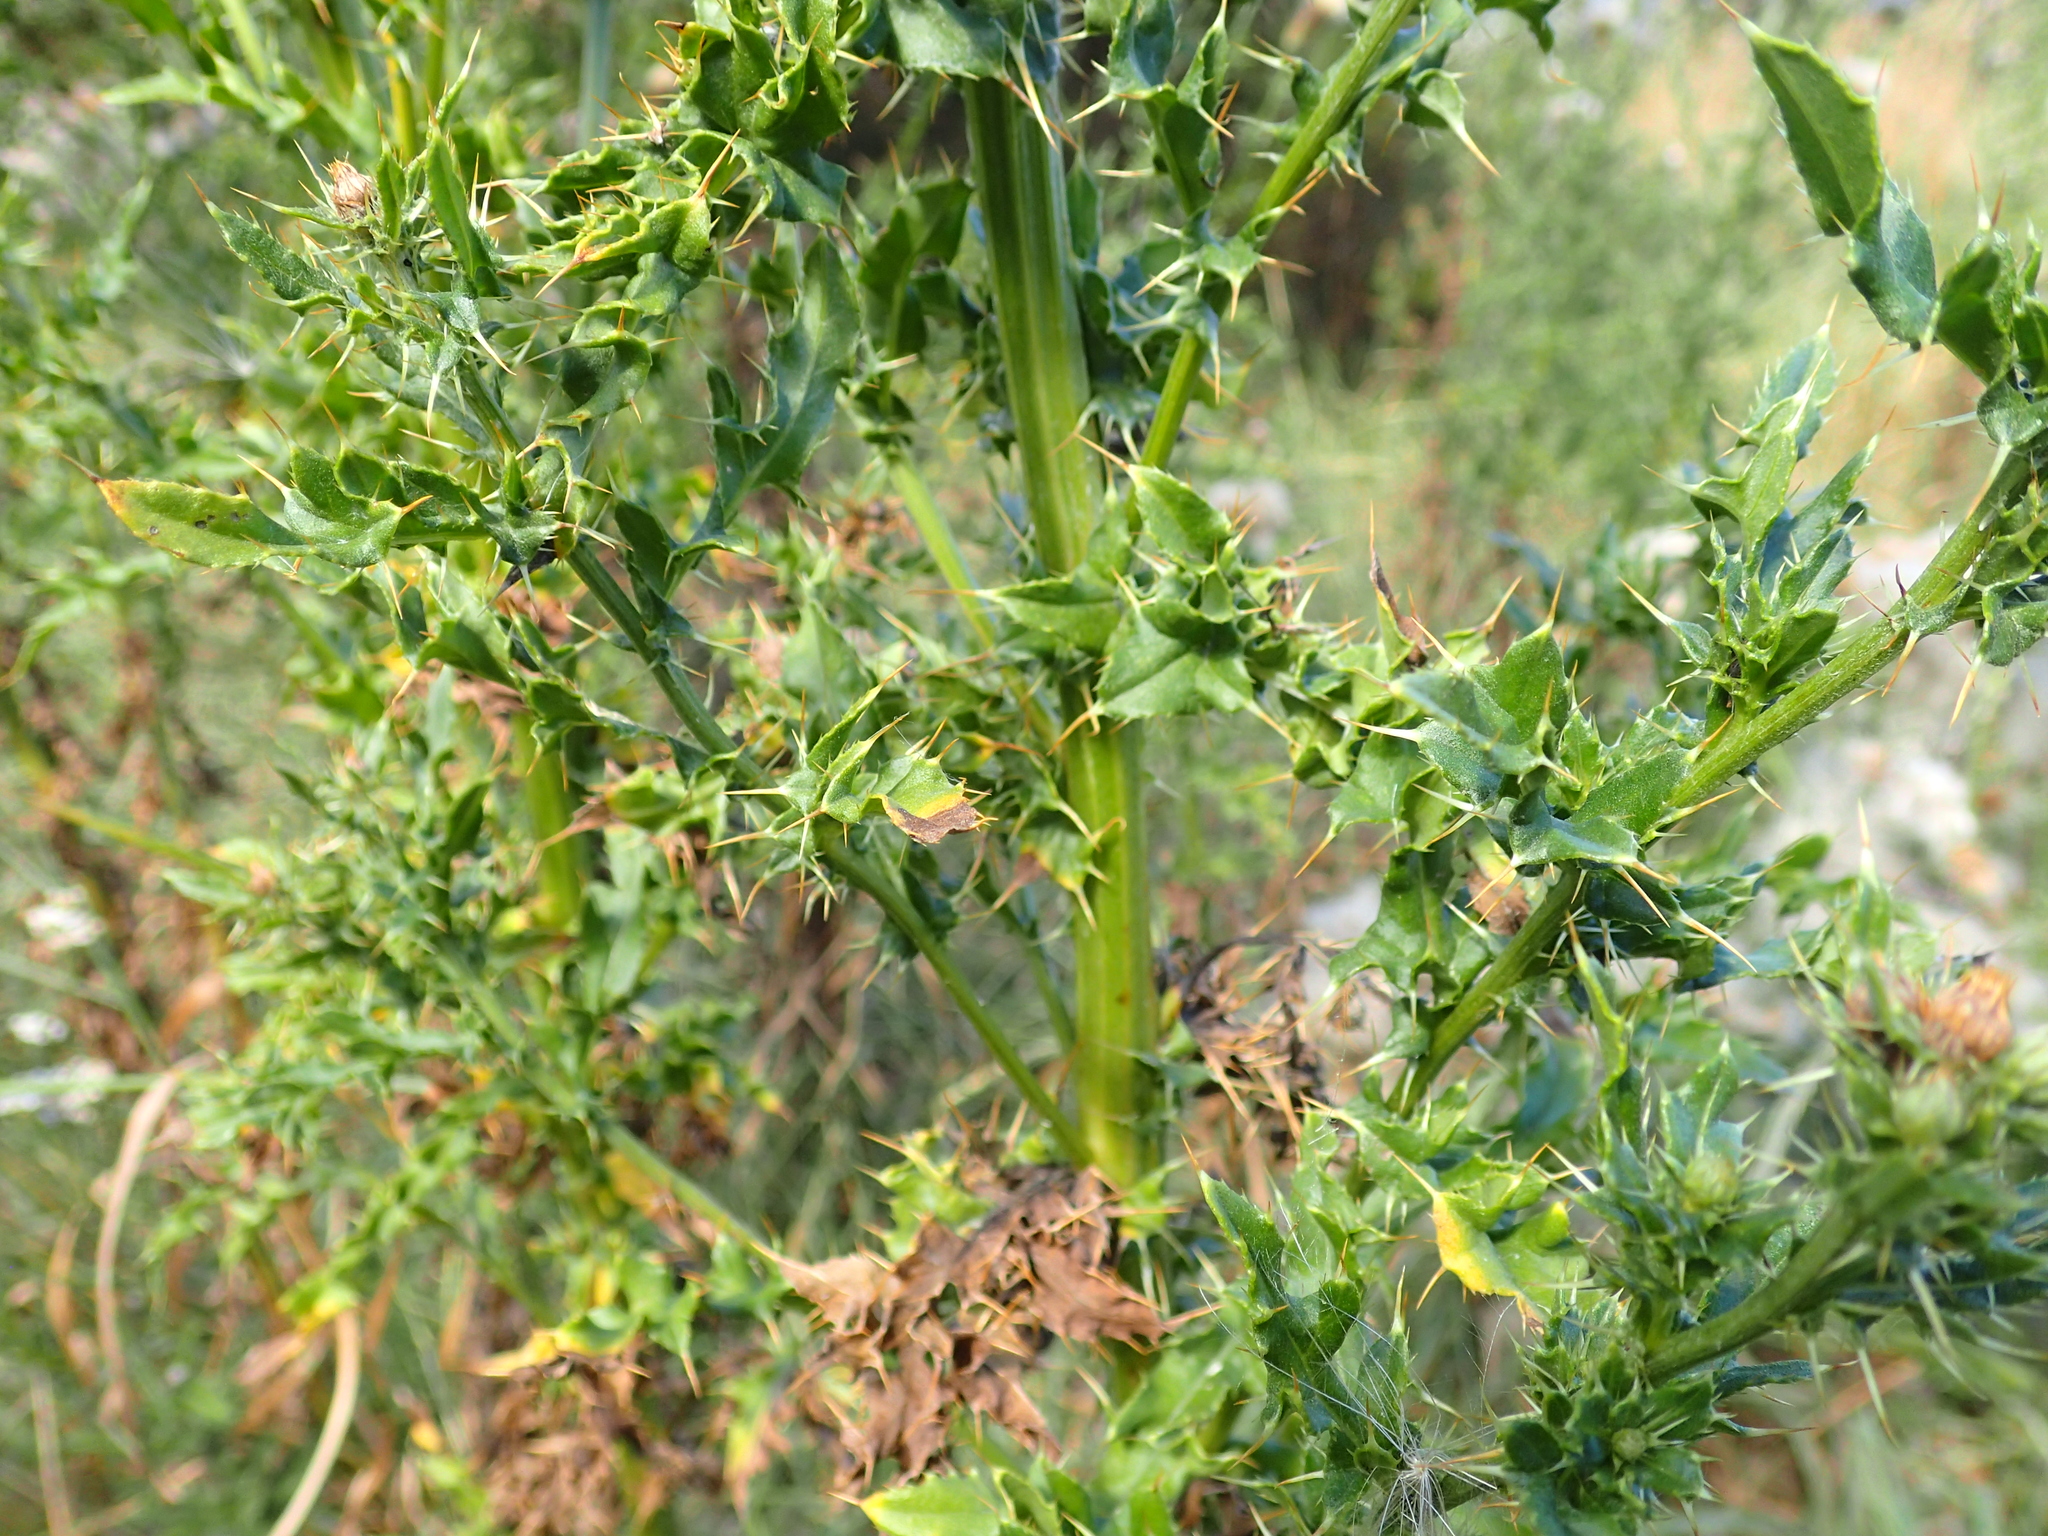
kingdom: Plantae
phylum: Tracheophyta
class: Magnoliopsida
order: Asterales
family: Asteraceae
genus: Cirsium
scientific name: Cirsium arvense
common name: Creeping thistle
